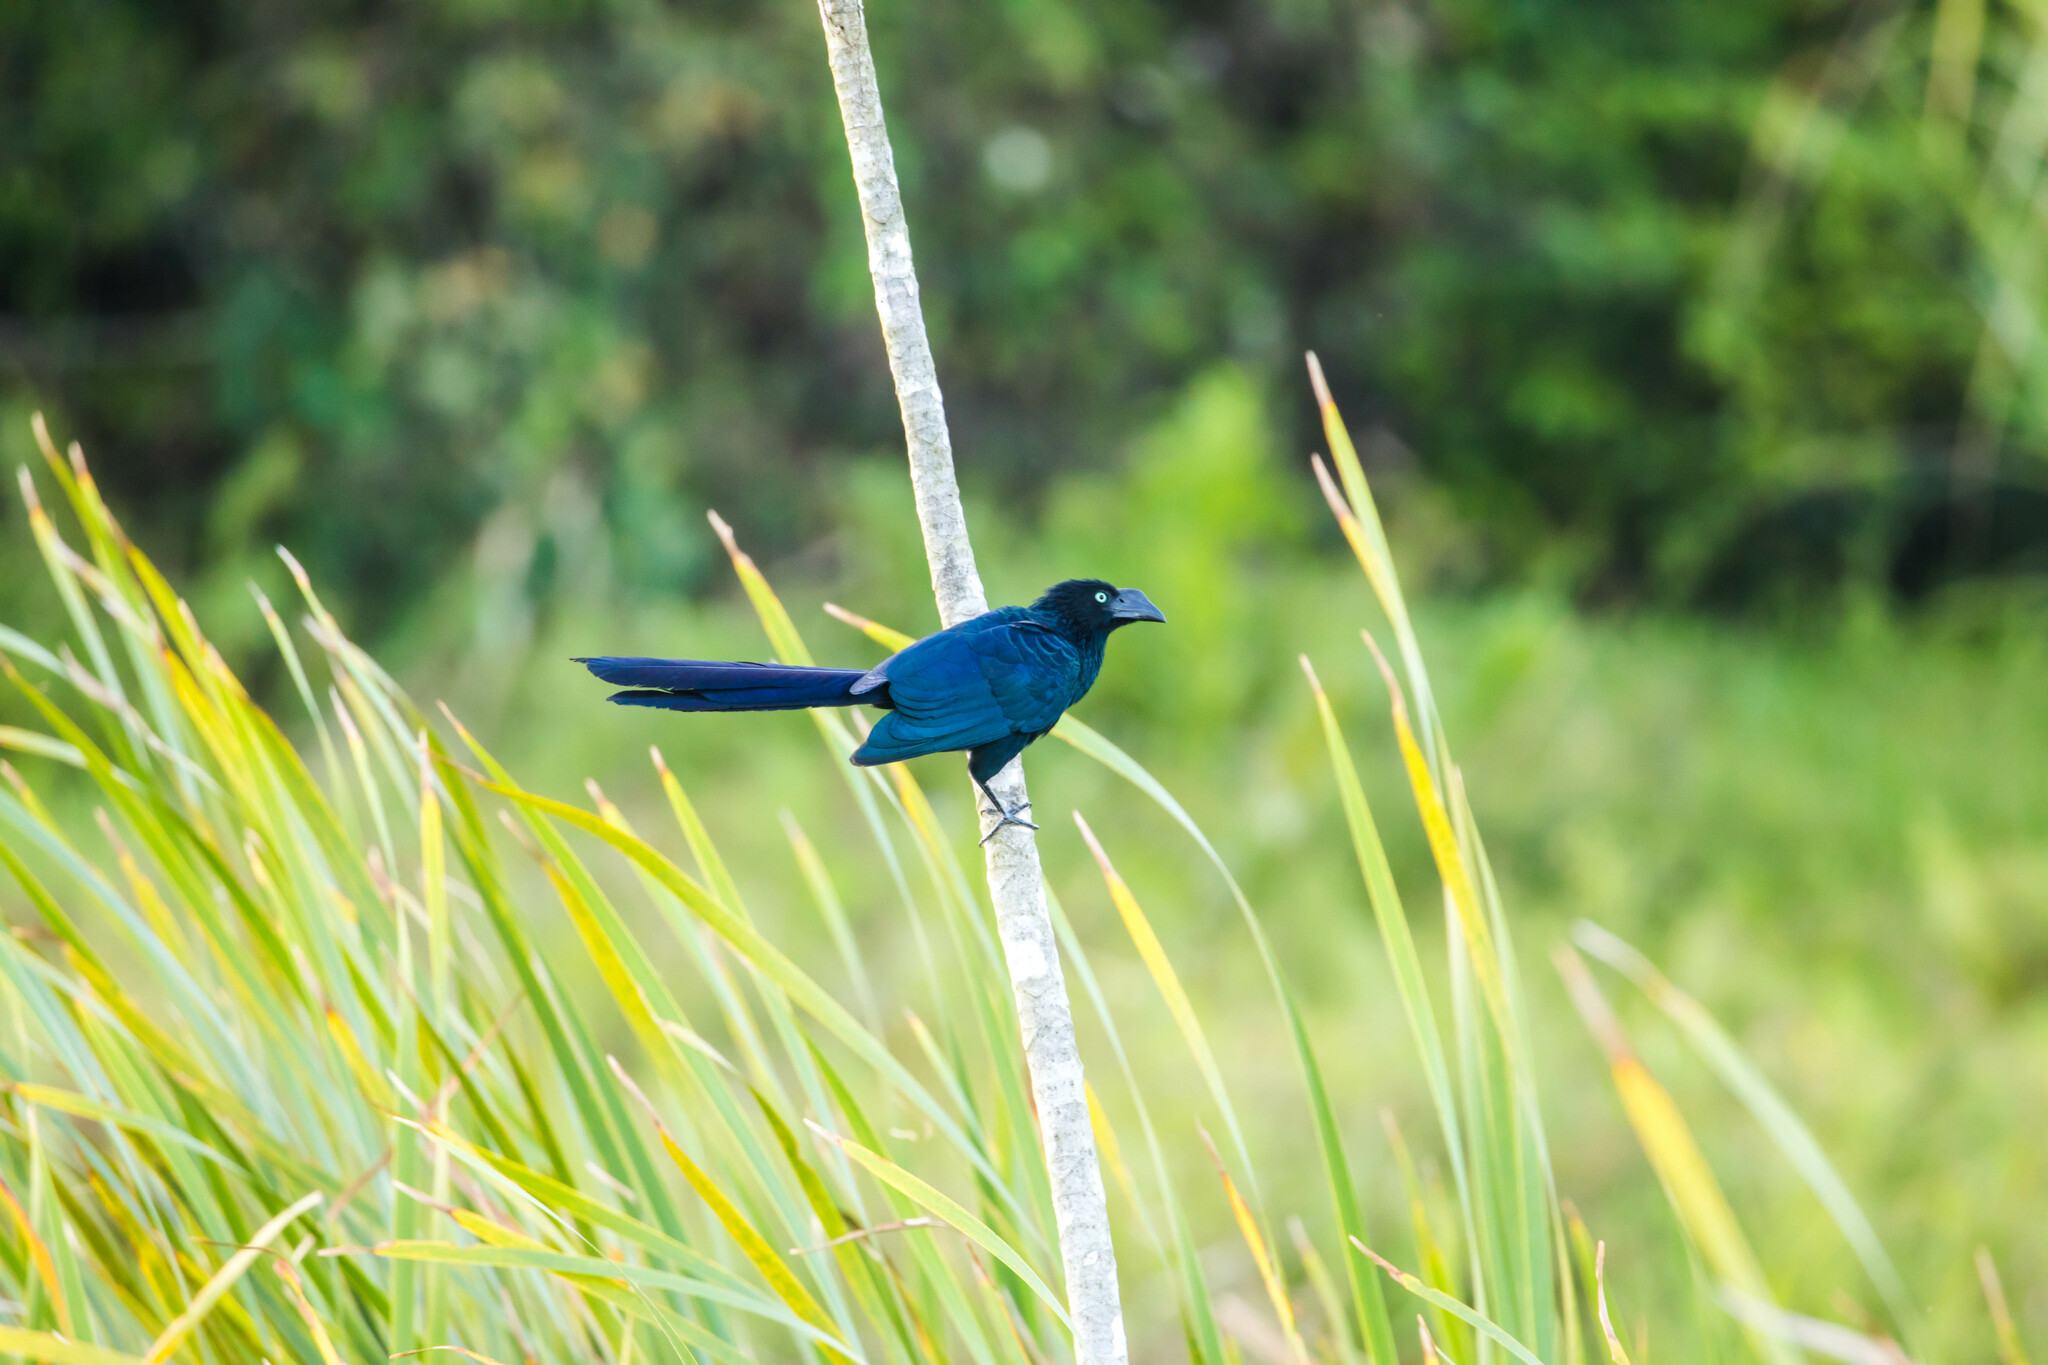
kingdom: Animalia
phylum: Chordata
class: Aves
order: Cuculiformes
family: Cuculidae
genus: Crotophaga
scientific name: Crotophaga major
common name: Greater ani
